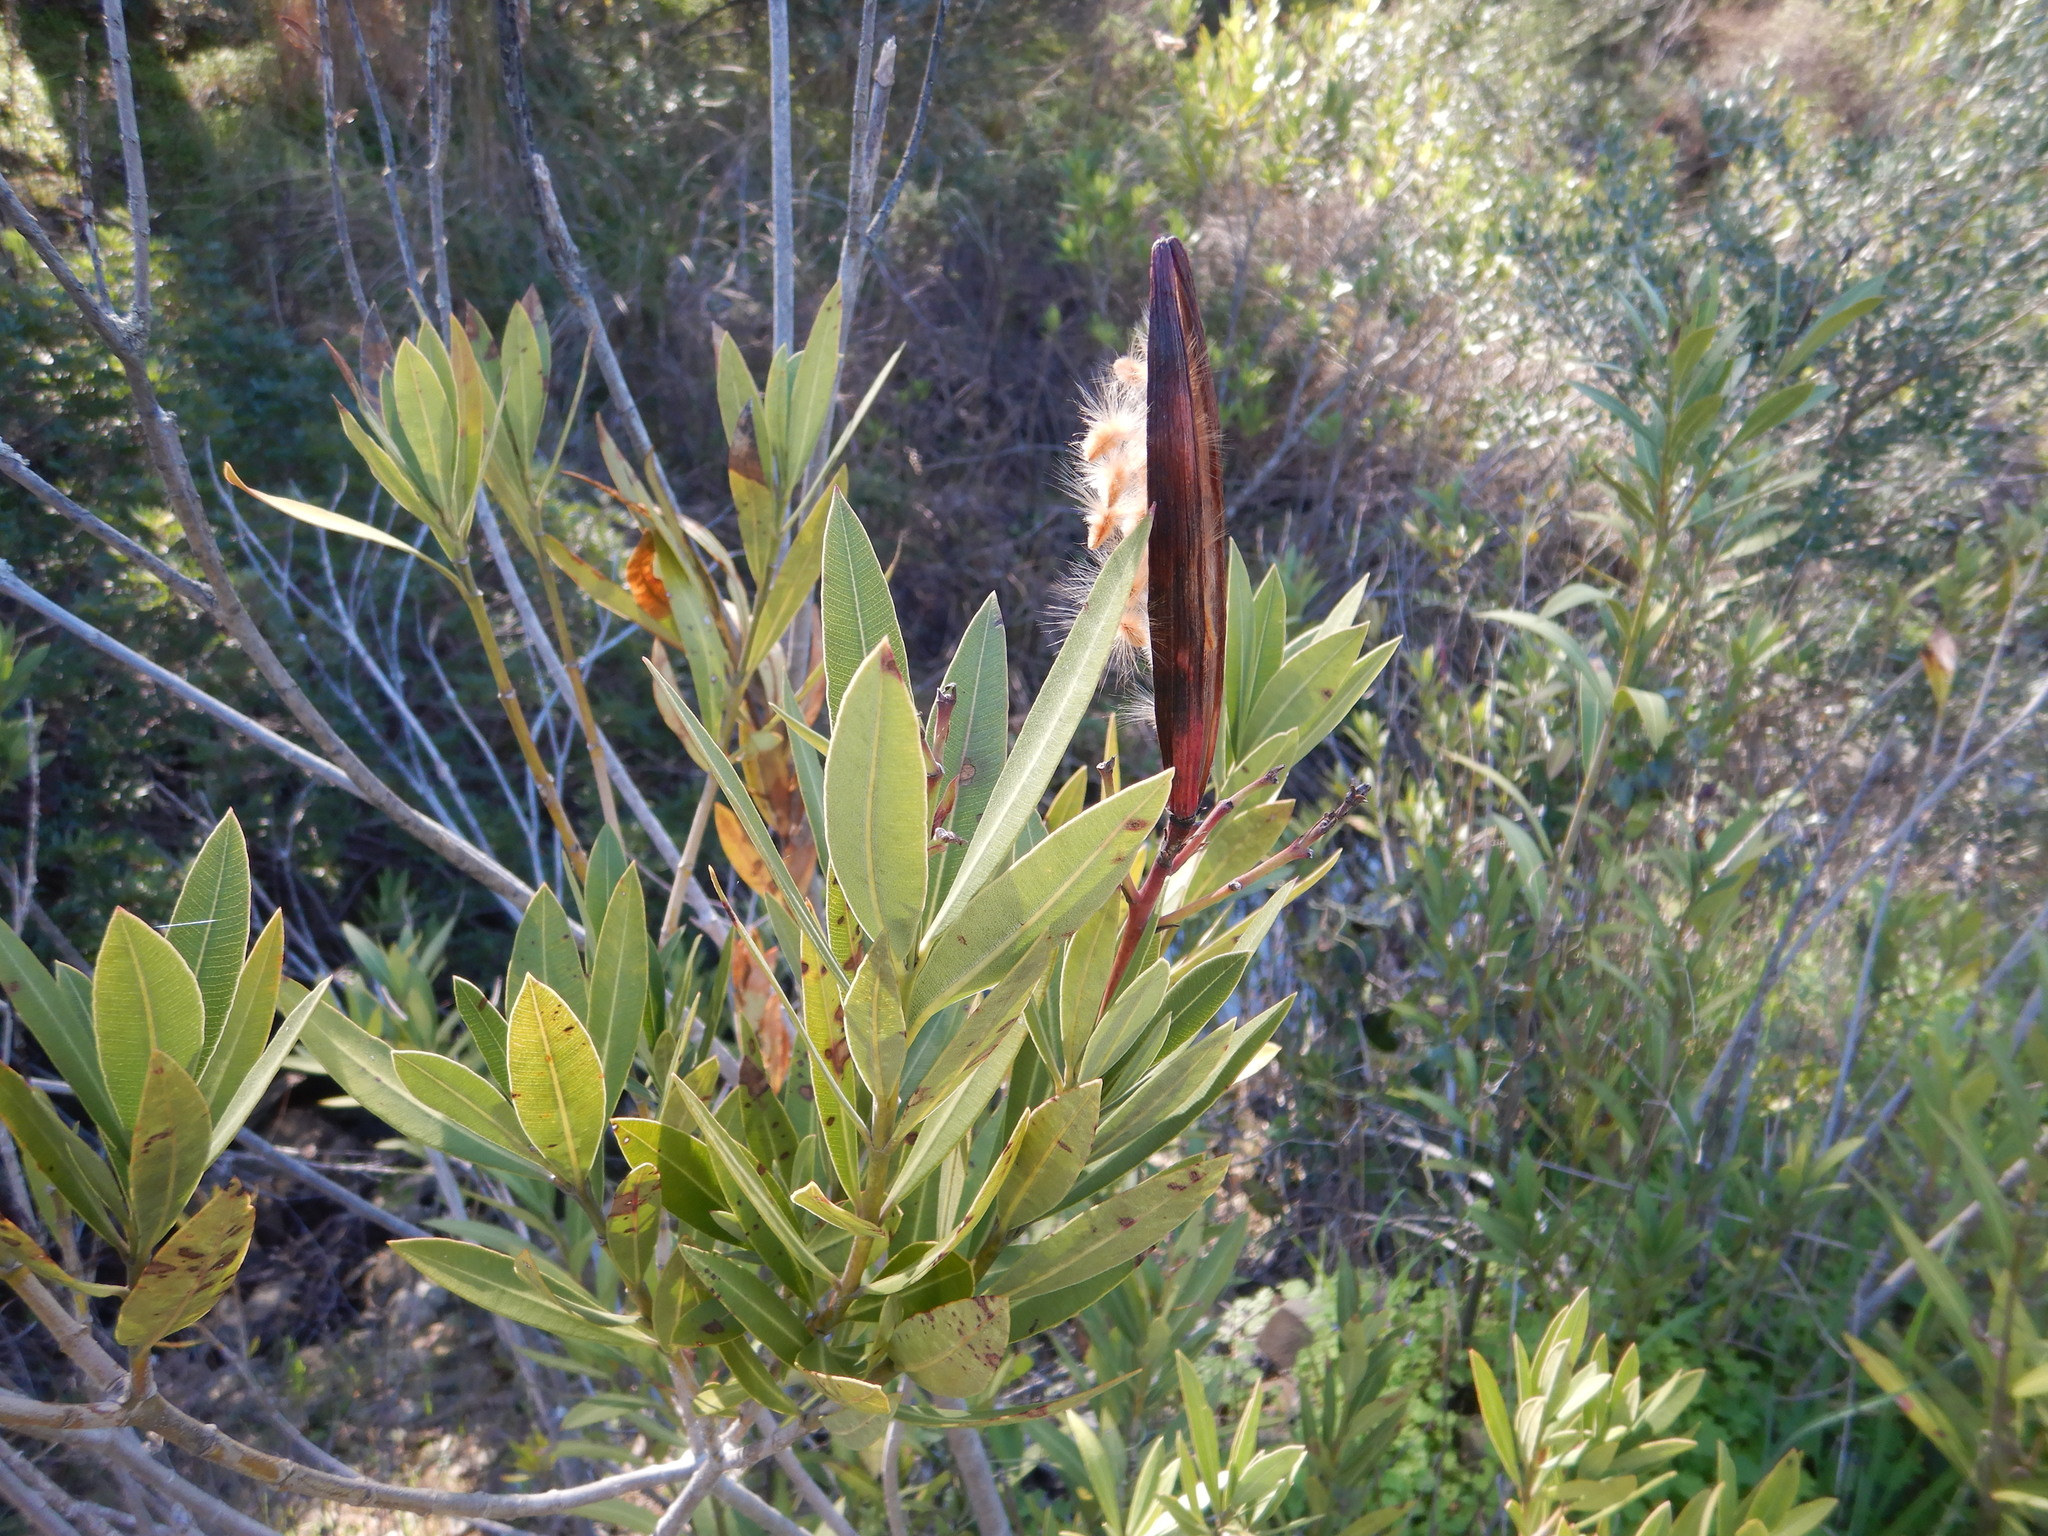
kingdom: Plantae
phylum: Tracheophyta
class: Magnoliopsida
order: Gentianales
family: Apocynaceae
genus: Nerium
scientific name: Nerium oleander
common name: Oleander
